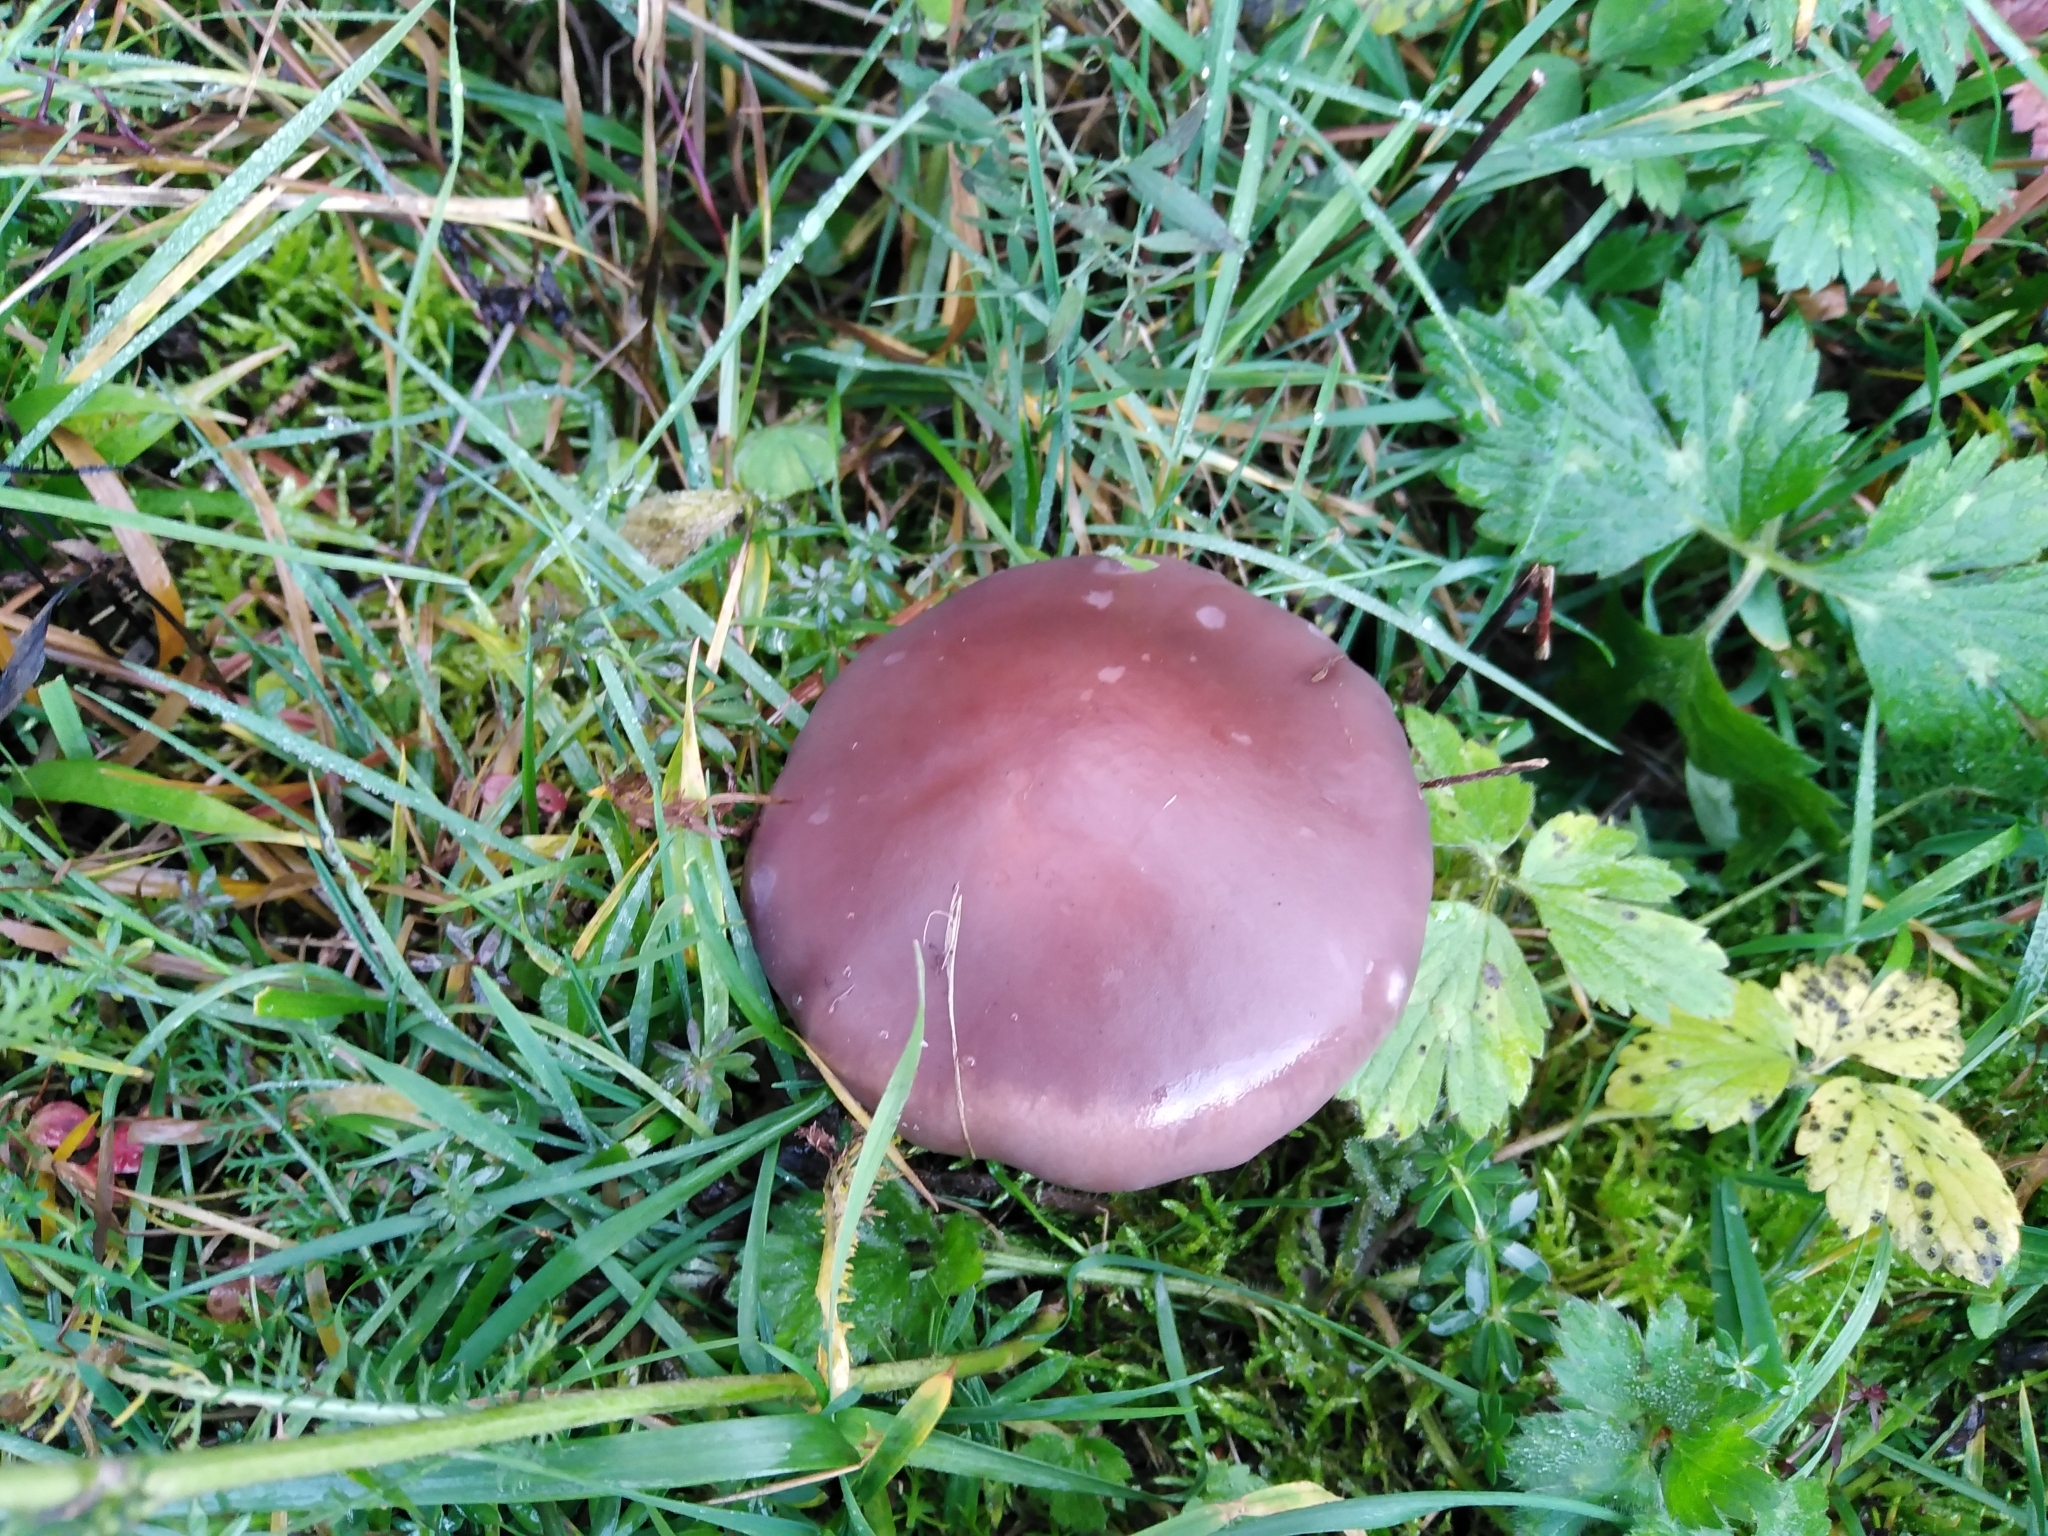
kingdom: Fungi
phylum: Basidiomycota
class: Agaricomycetes
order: Agaricales
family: Tricholomataceae
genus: Collybia
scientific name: Collybia
